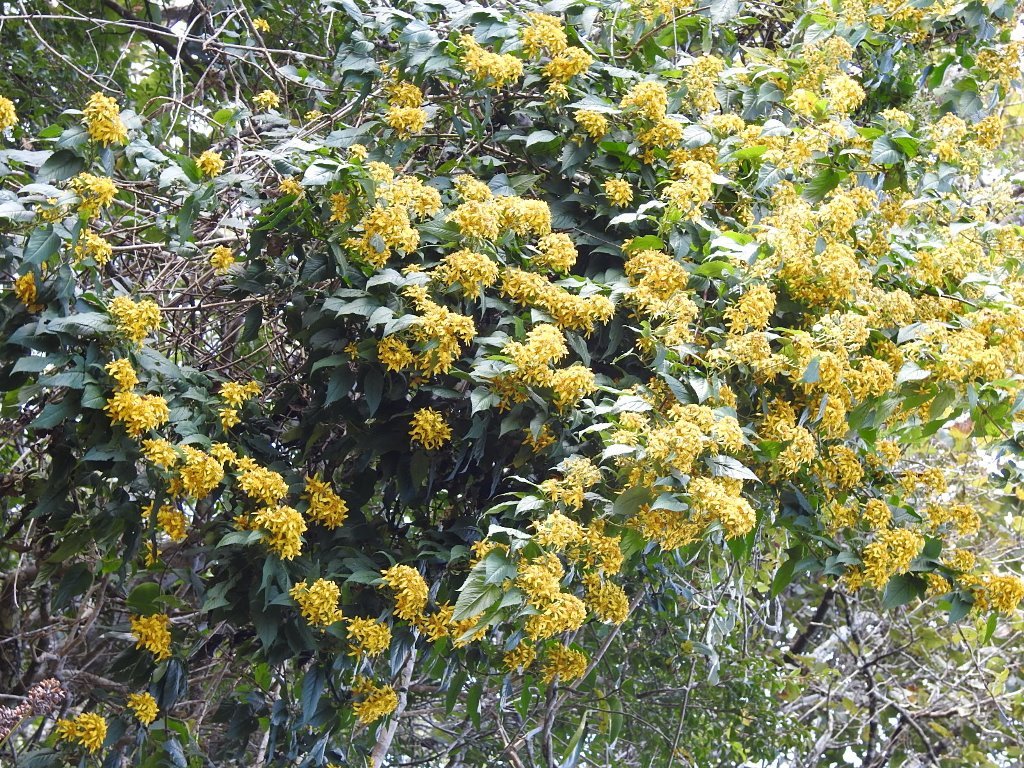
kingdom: Plantae
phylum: Tracheophyta
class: Magnoliopsida
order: Asterales
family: Asteraceae
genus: Bidens
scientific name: Bidens reptans
